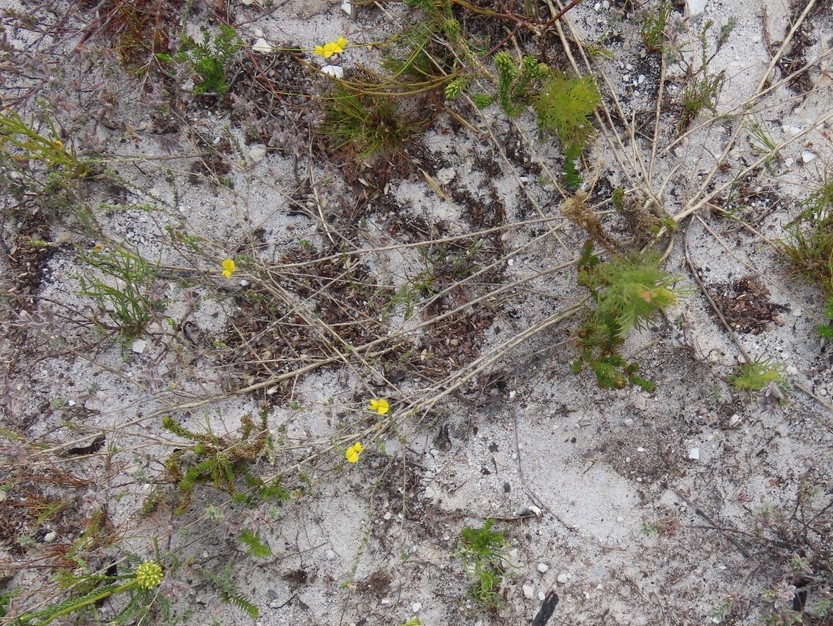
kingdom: Plantae
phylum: Tracheophyta
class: Magnoliopsida
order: Fabales
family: Fabaceae
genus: Aspalathus
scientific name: Aspalathus intervallaris
